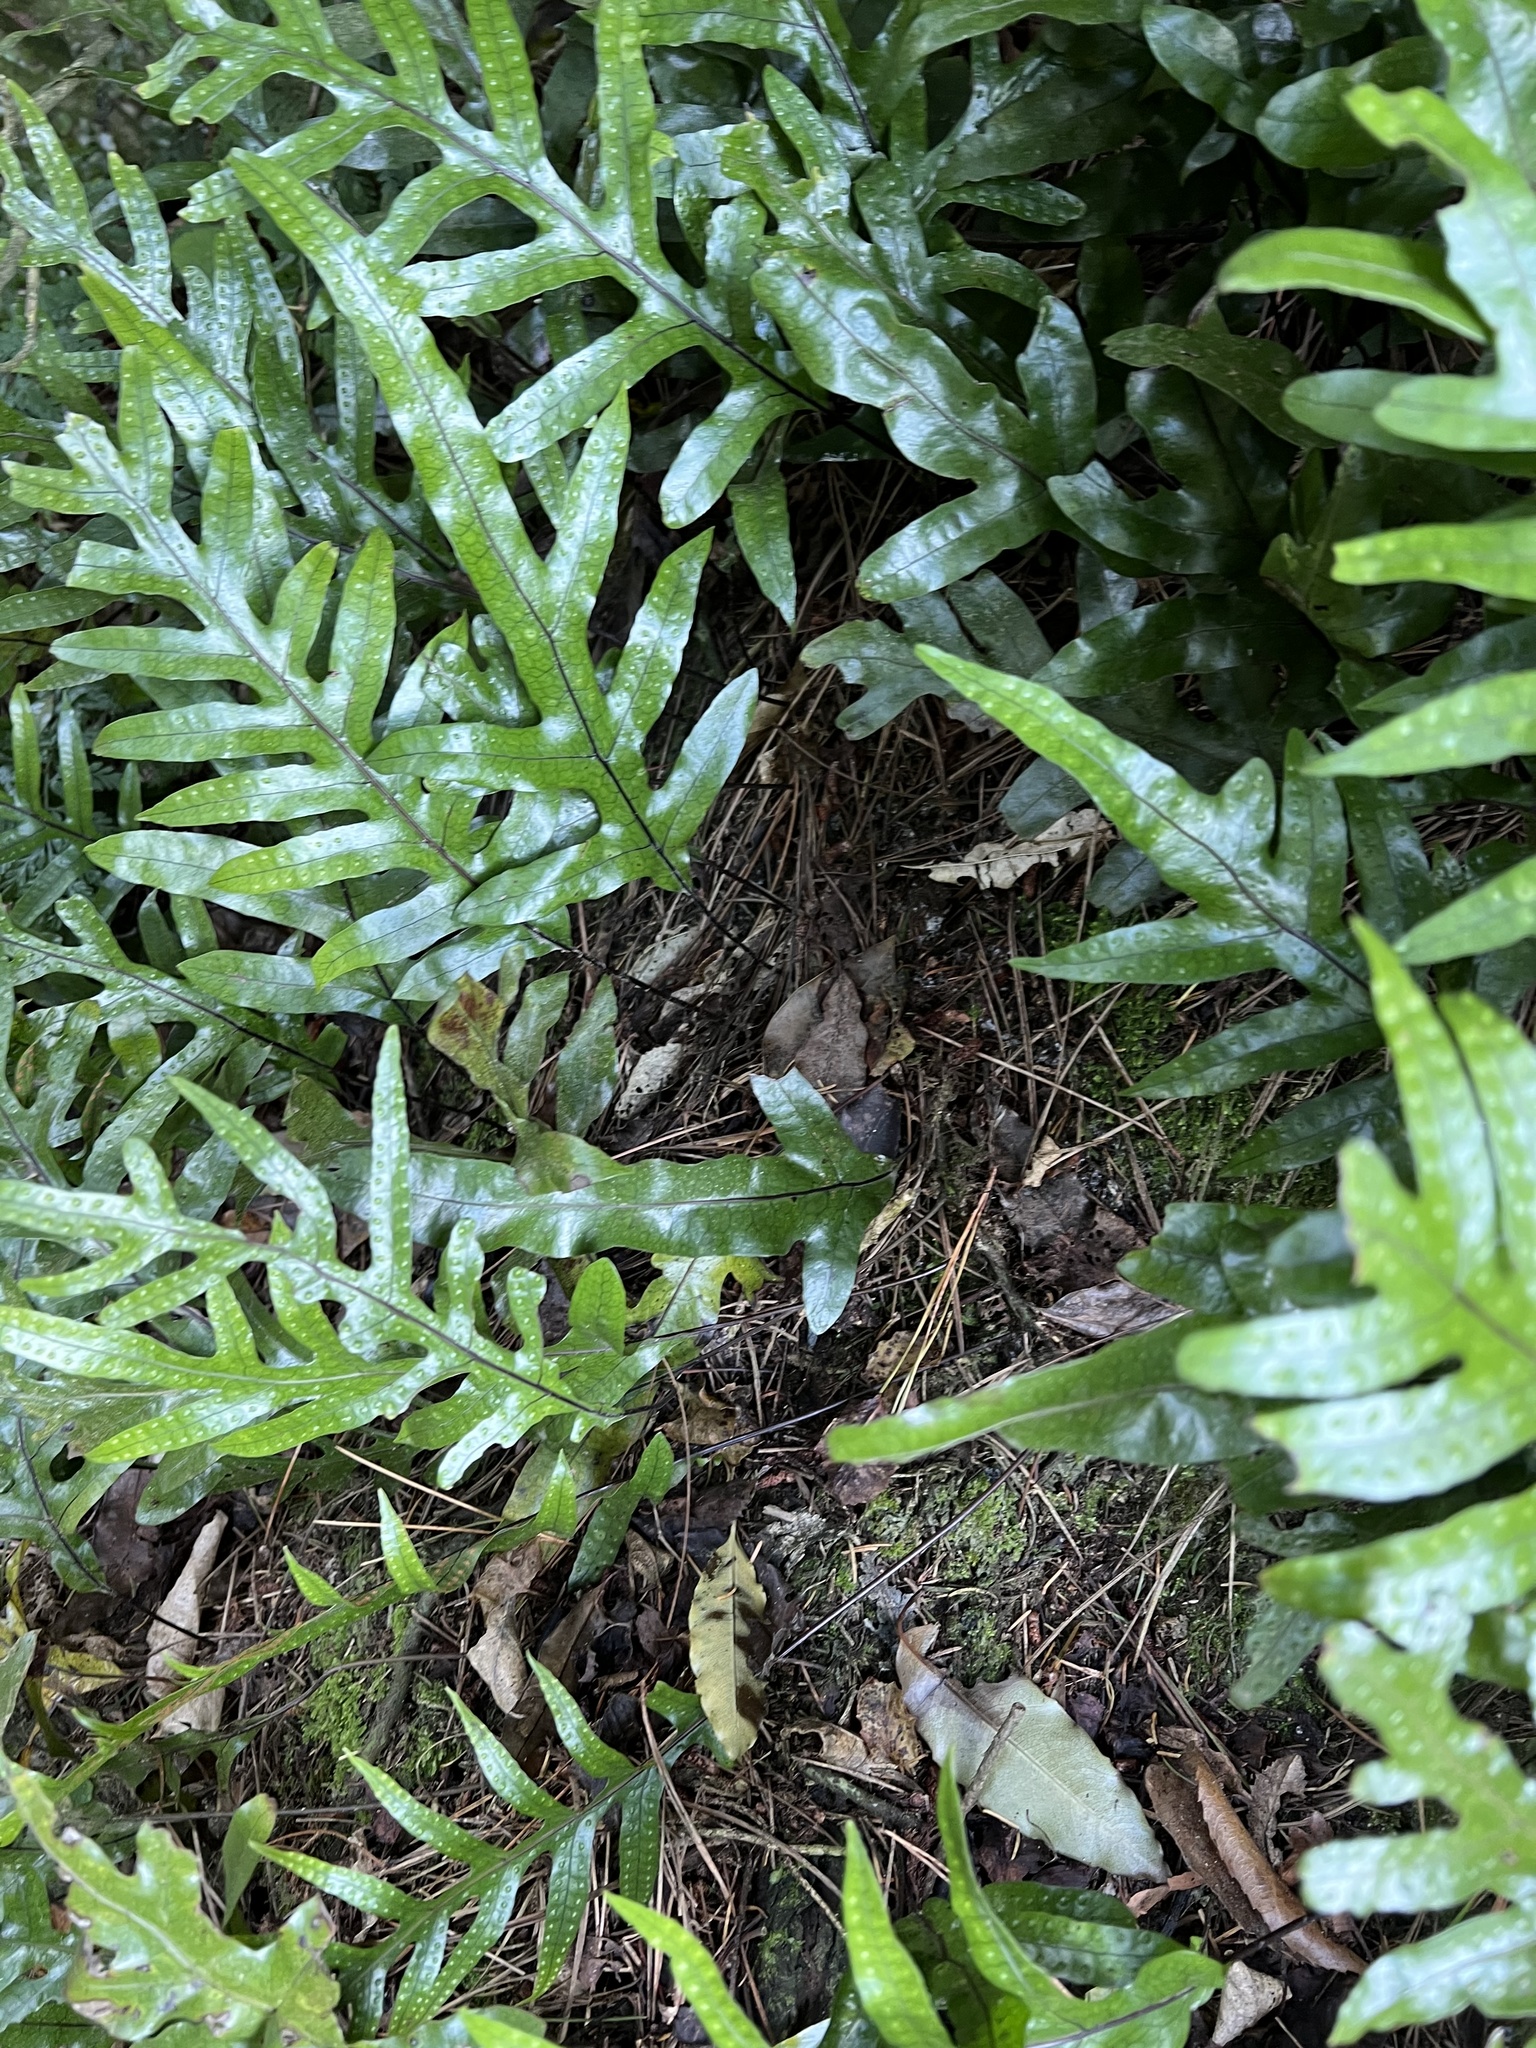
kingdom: Plantae
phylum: Tracheophyta
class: Polypodiopsida
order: Polypodiales
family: Polypodiaceae
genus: Lecanopteris
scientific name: Lecanopteris pustulata
